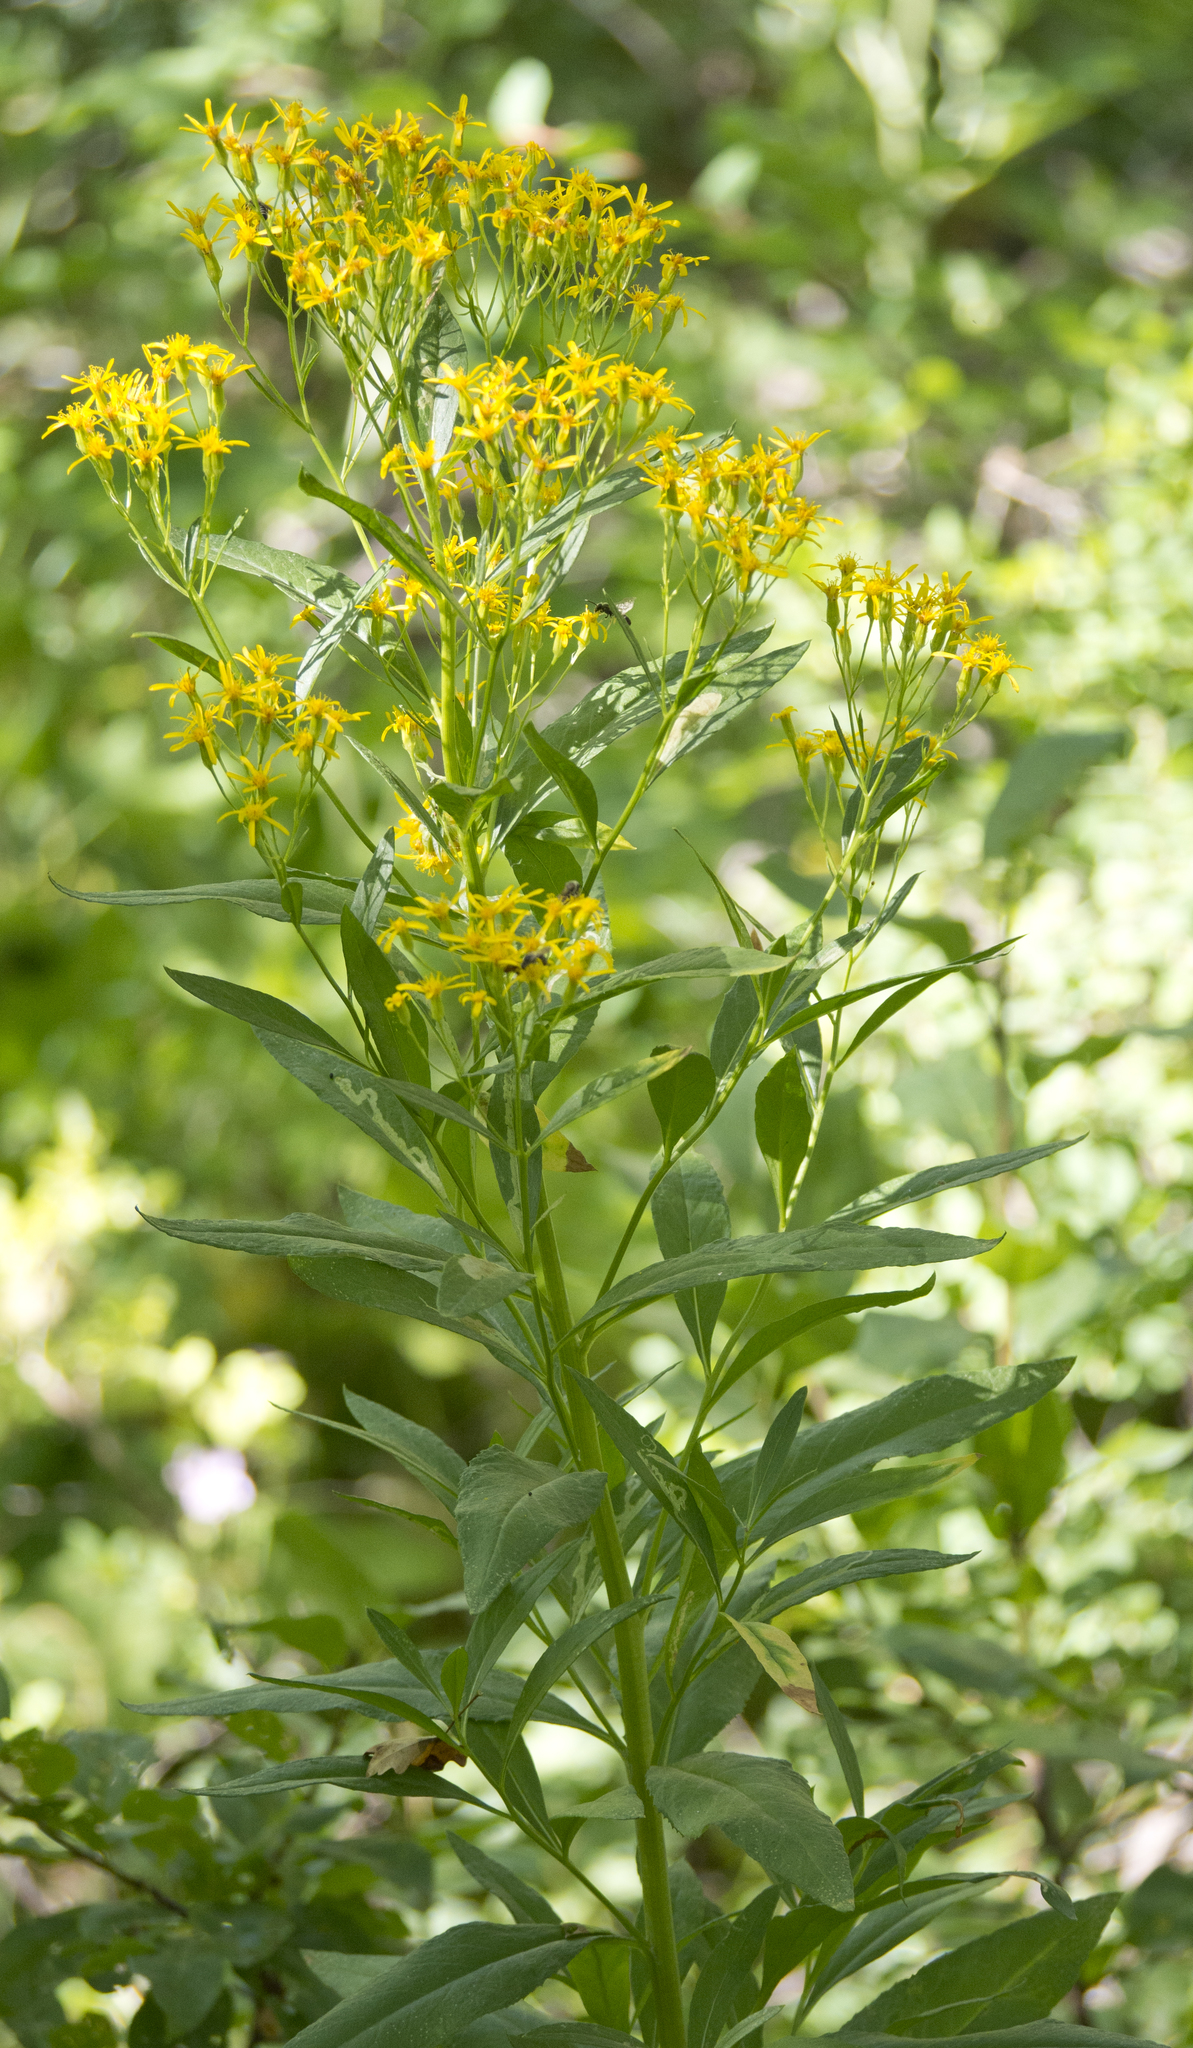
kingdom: Plantae
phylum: Tracheophyta
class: Magnoliopsida
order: Asterales
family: Asteraceae
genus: Senecio
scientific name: Senecio serra
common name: Tall ragwort
